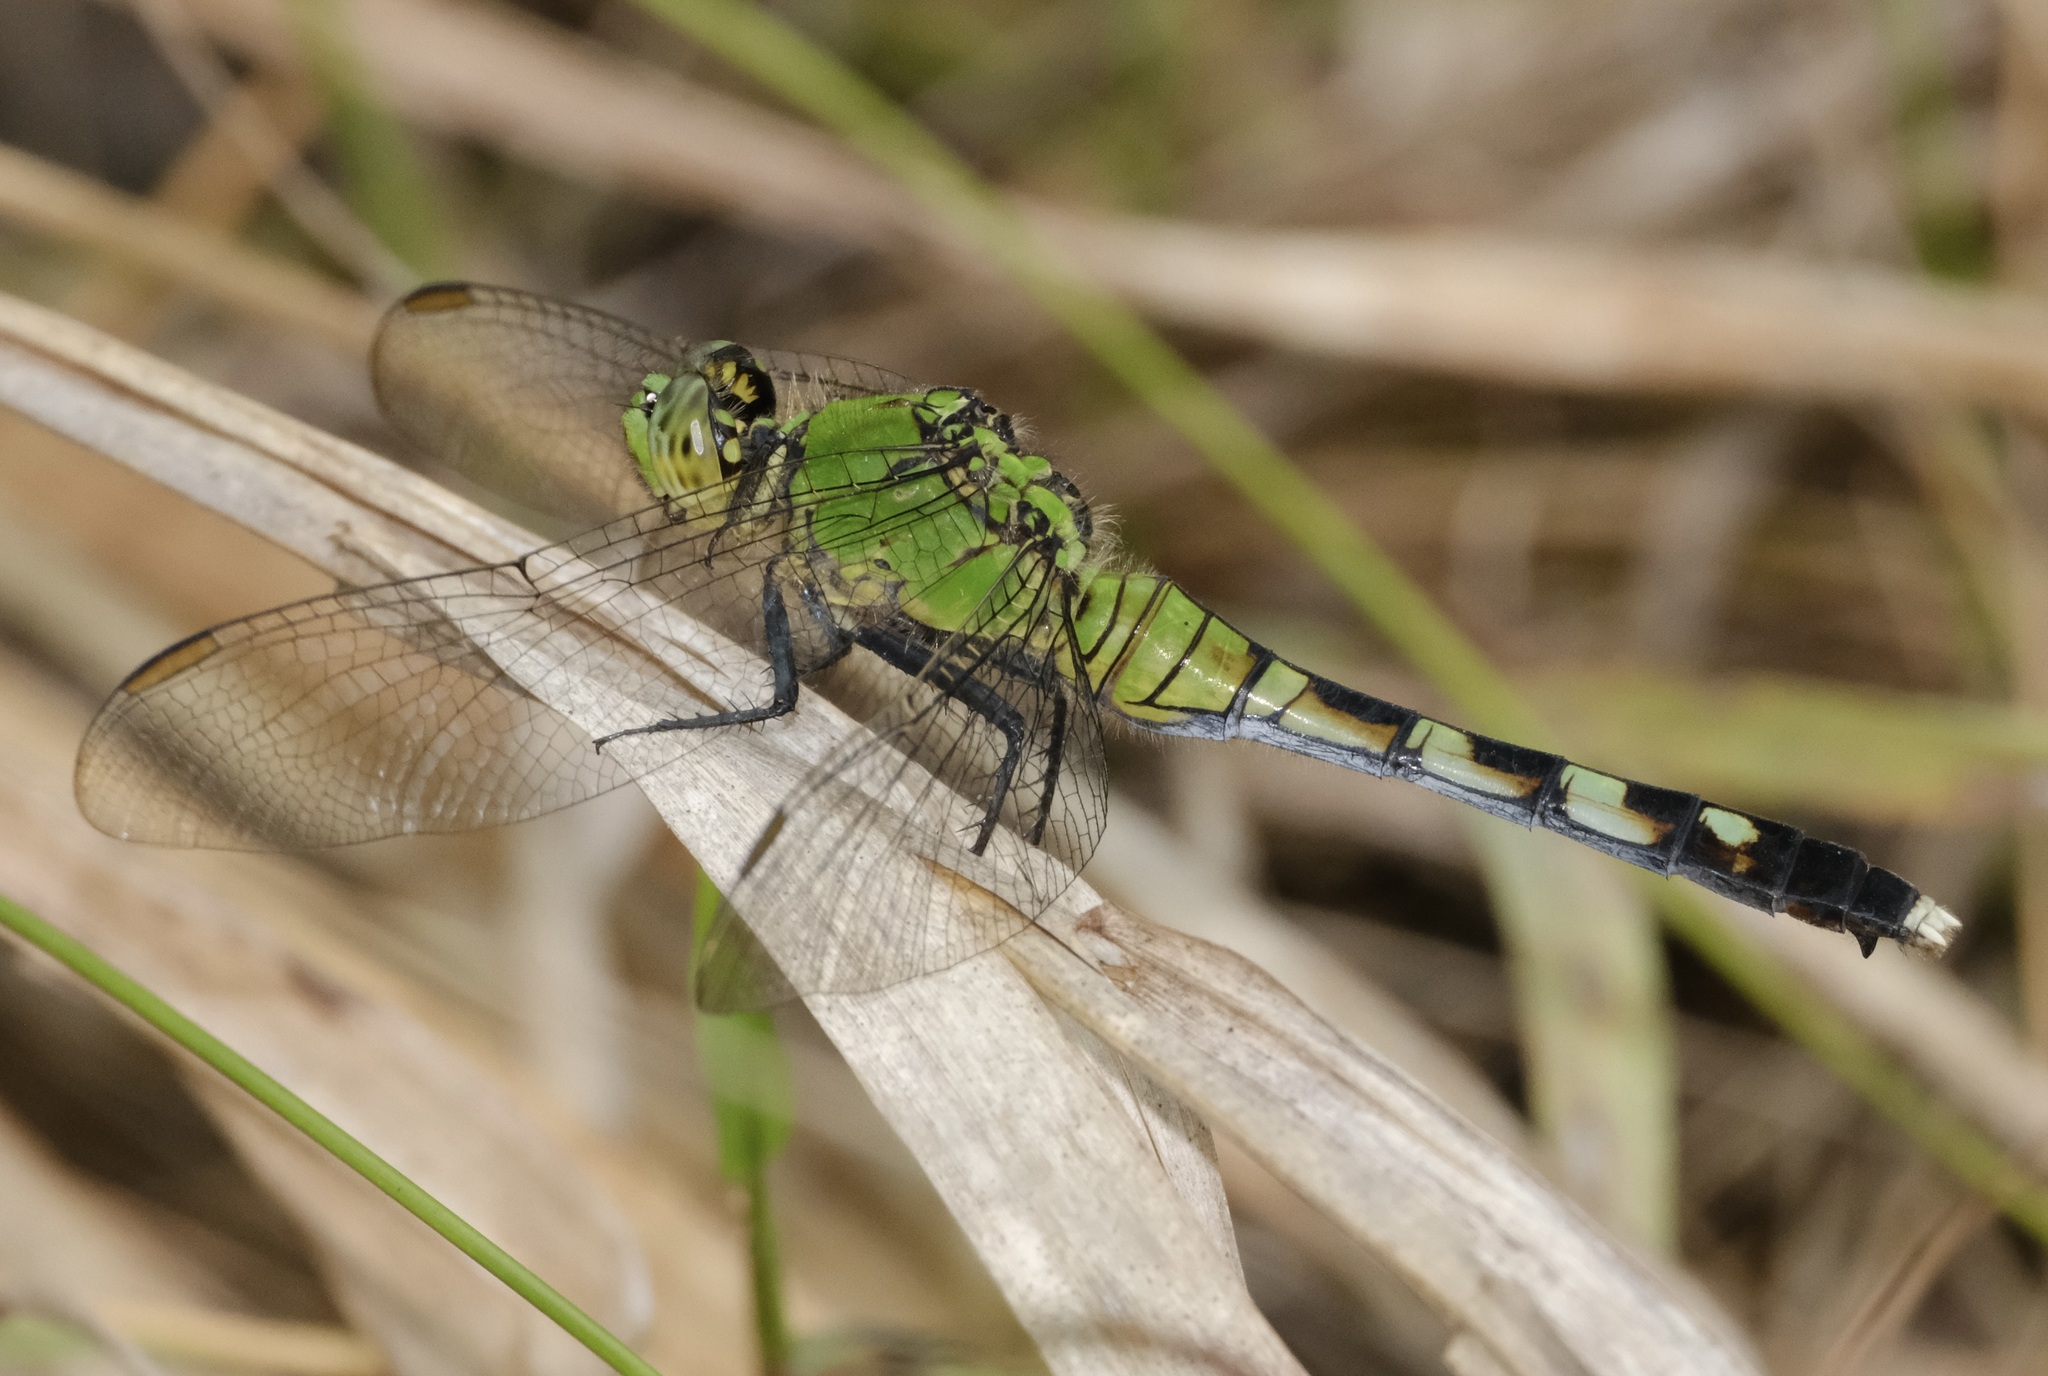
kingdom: Animalia
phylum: Arthropoda
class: Insecta
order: Odonata
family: Libellulidae
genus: Erythemis
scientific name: Erythemis simplicicollis
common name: Eastern pondhawk
